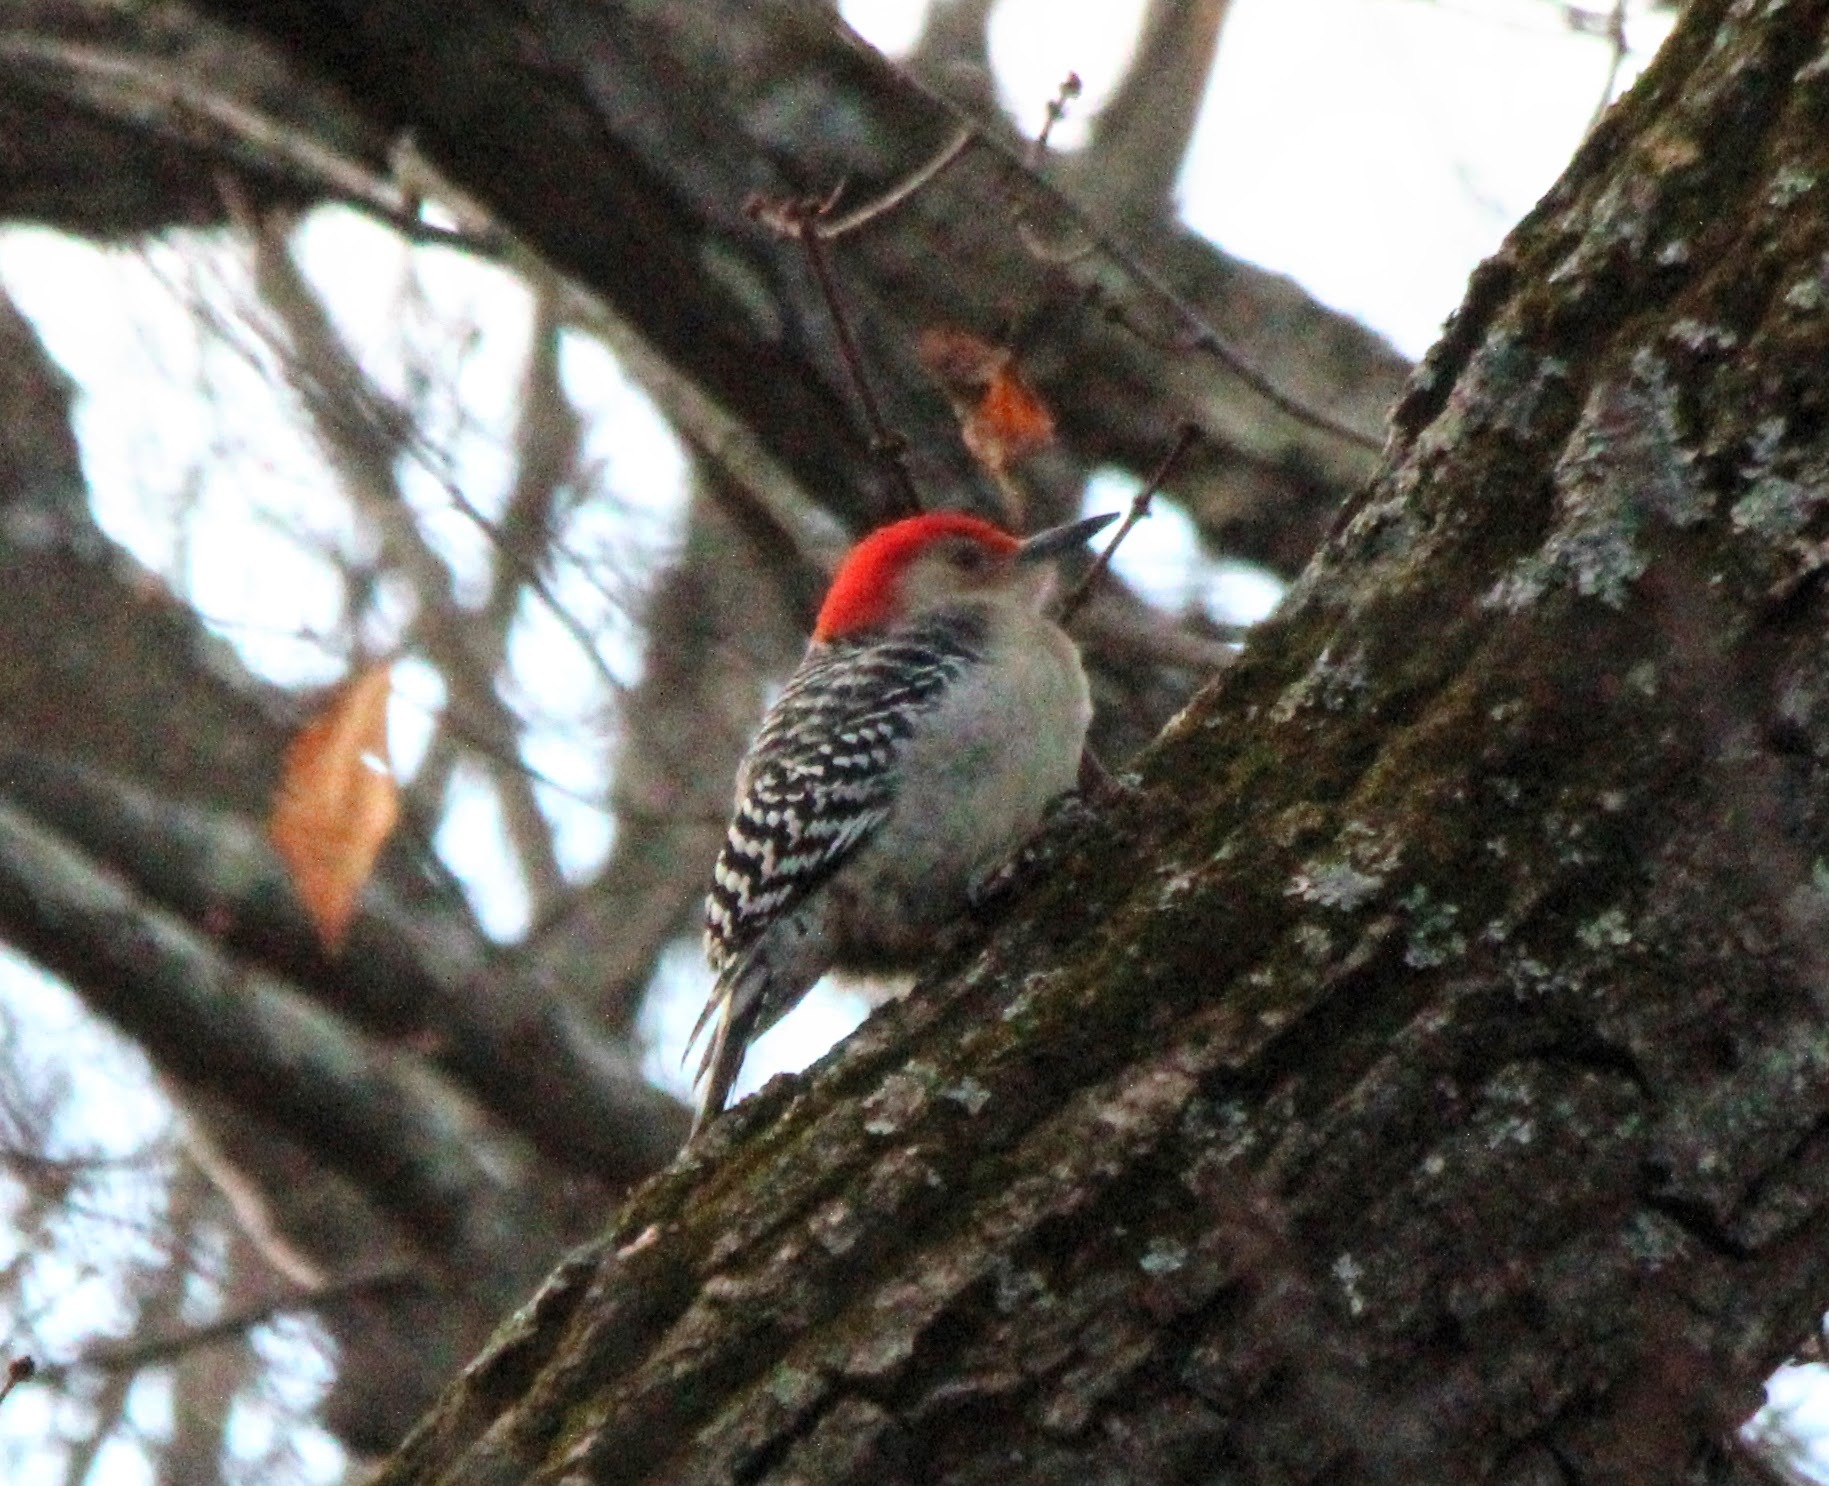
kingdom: Animalia
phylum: Chordata
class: Aves
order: Piciformes
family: Picidae
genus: Melanerpes
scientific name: Melanerpes carolinus
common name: Red-bellied woodpecker
